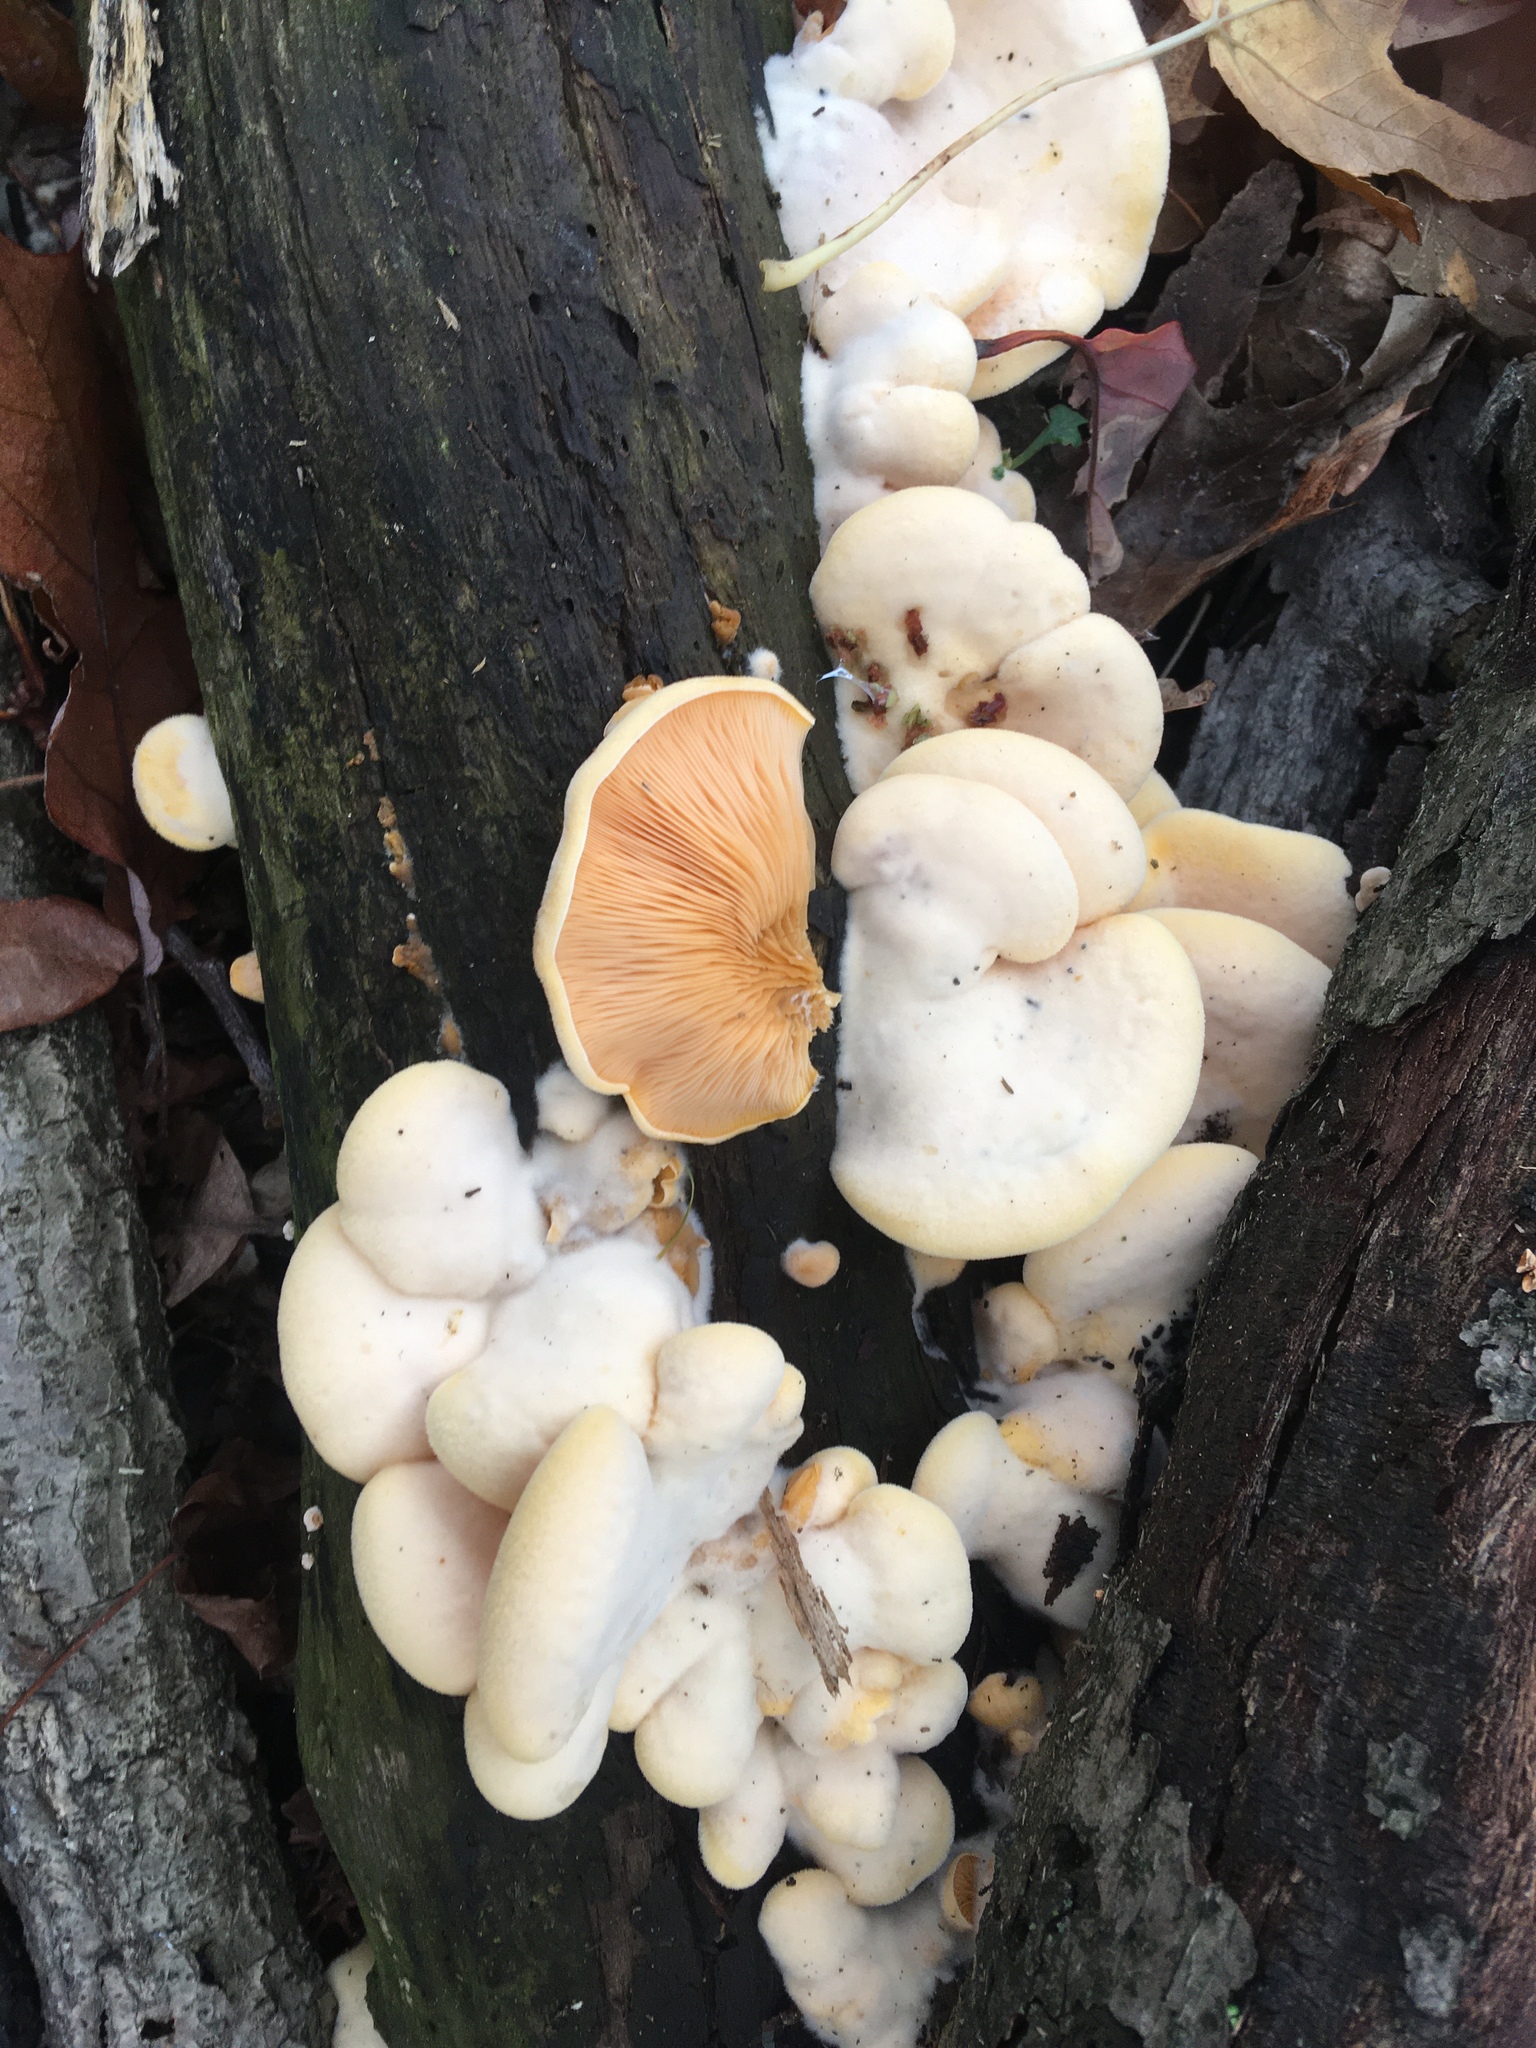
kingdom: Fungi
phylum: Basidiomycota
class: Agaricomycetes
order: Agaricales
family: Phyllotopsidaceae
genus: Phyllotopsis
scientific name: Phyllotopsis nidulans
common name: Orange mock oyster
